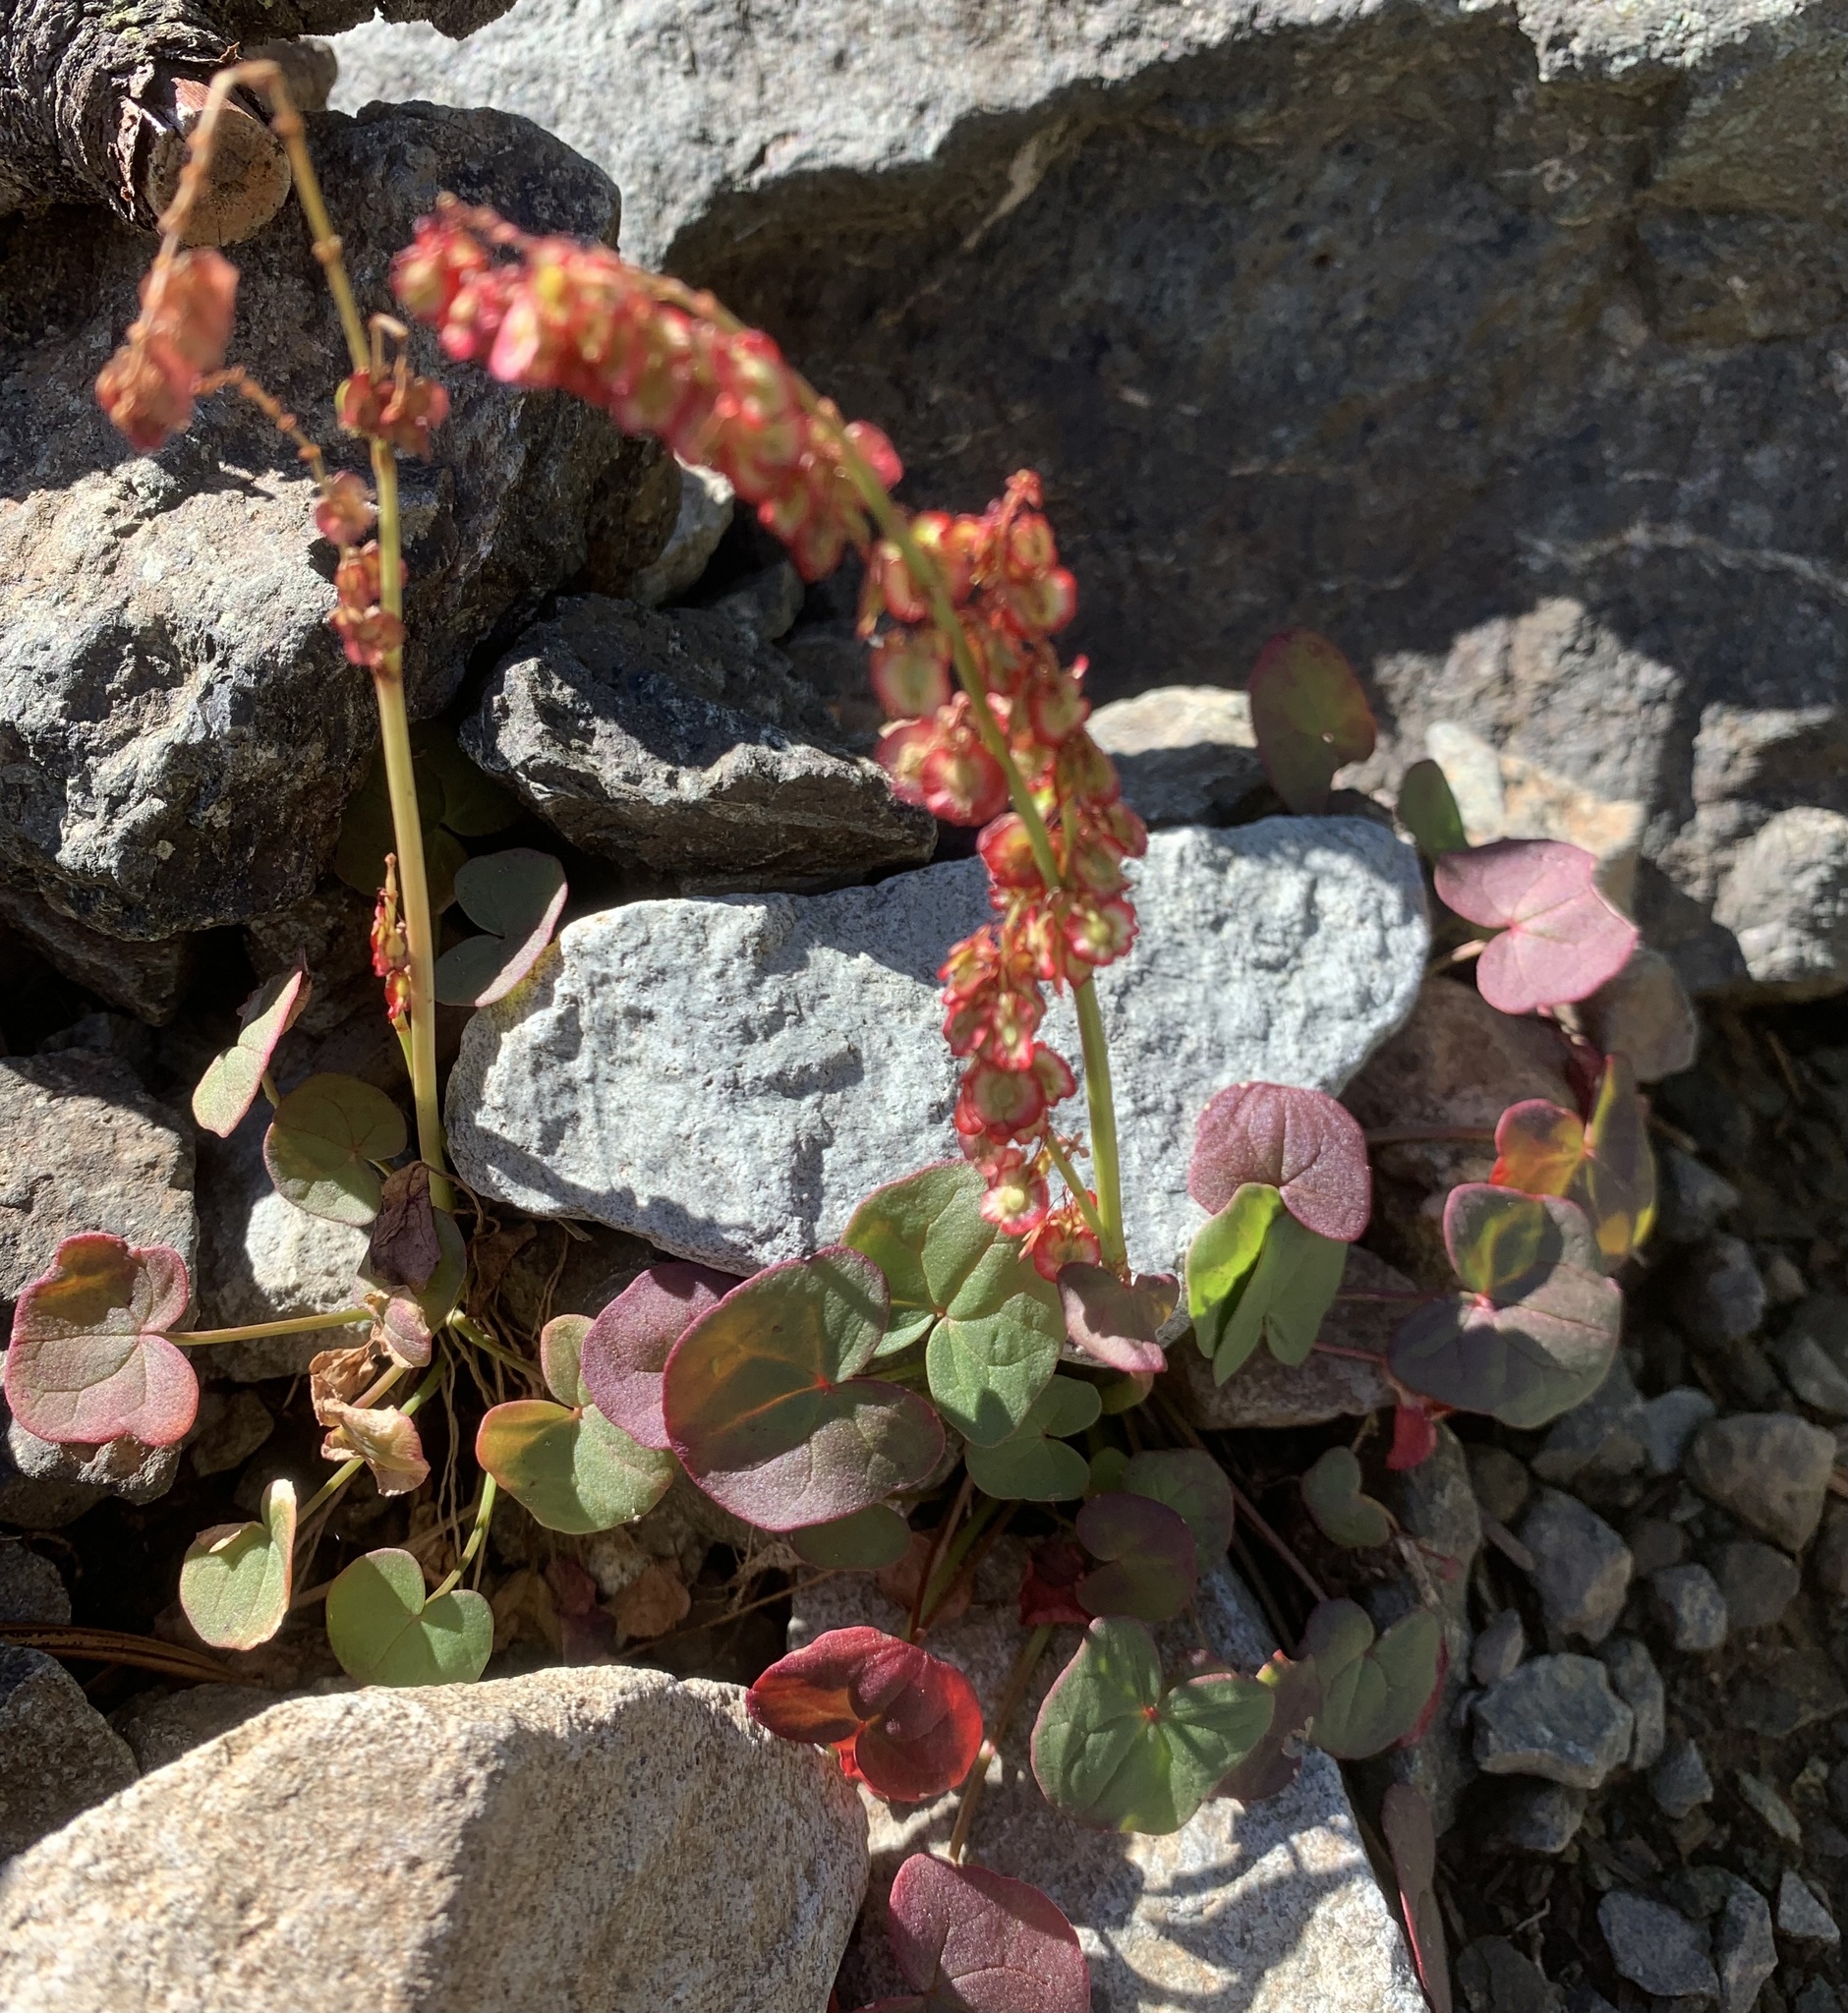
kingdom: Plantae
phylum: Tracheophyta
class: Magnoliopsida
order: Caryophyllales
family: Polygonaceae
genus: Oxyria
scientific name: Oxyria digyna
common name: Alpine mountain-sorrel
